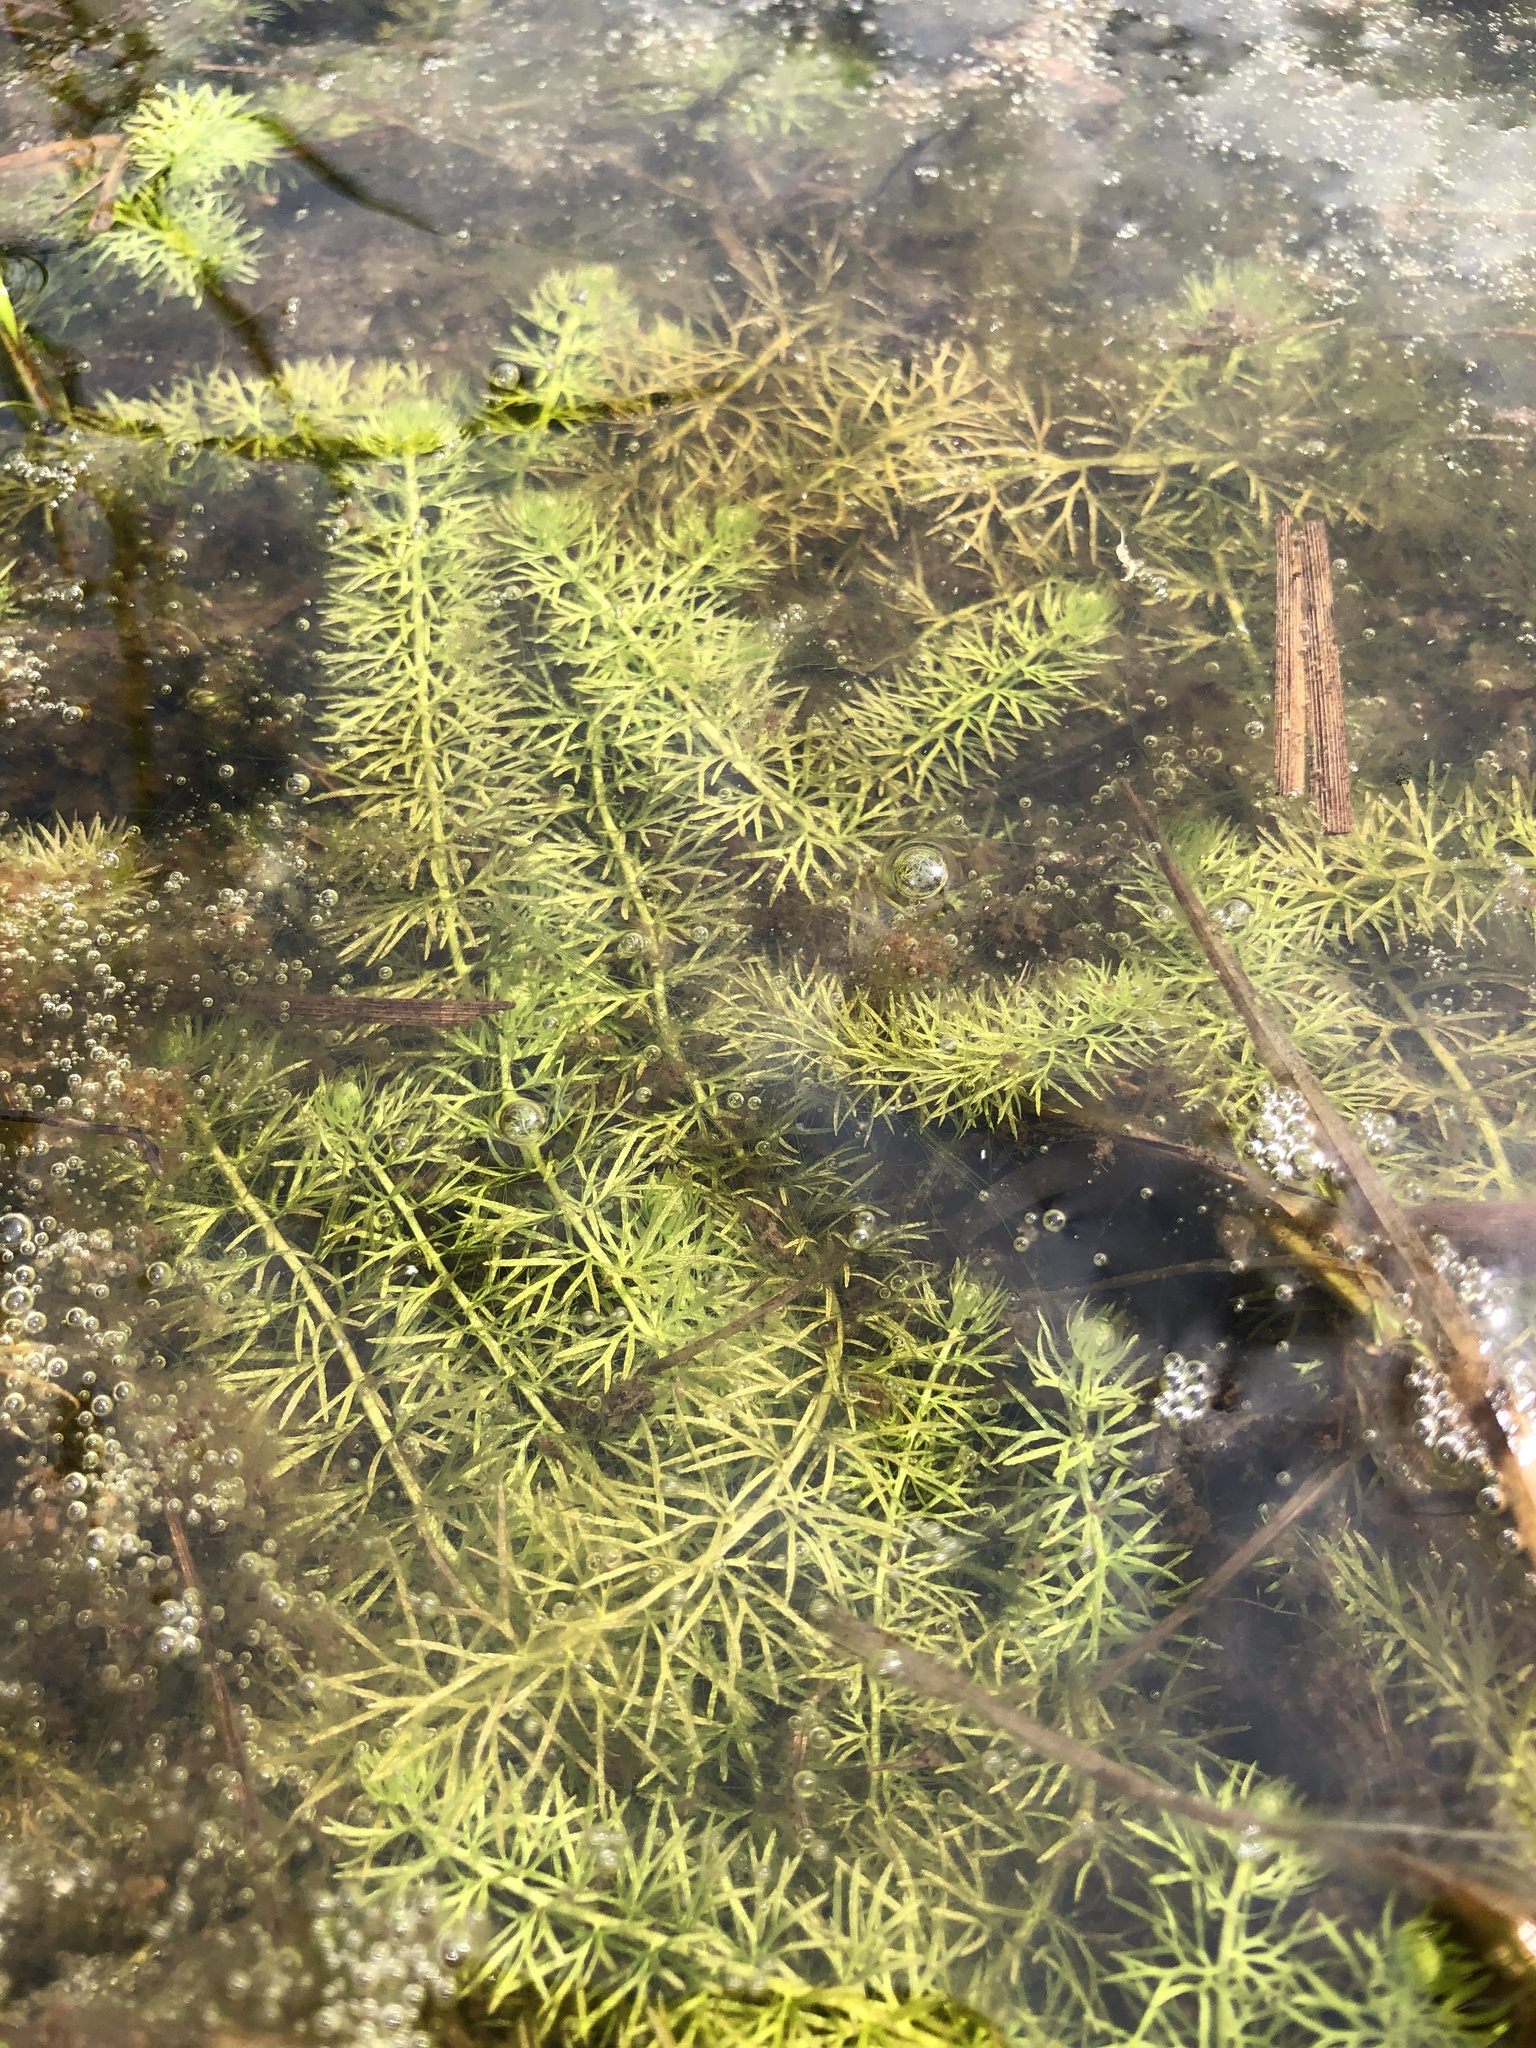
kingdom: Plantae
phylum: Tracheophyta
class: Magnoliopsida
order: Lamiales
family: Lentibulariaceae
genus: Utricularia
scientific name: Utricularia intermedia
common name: Intermediate bladderwort
